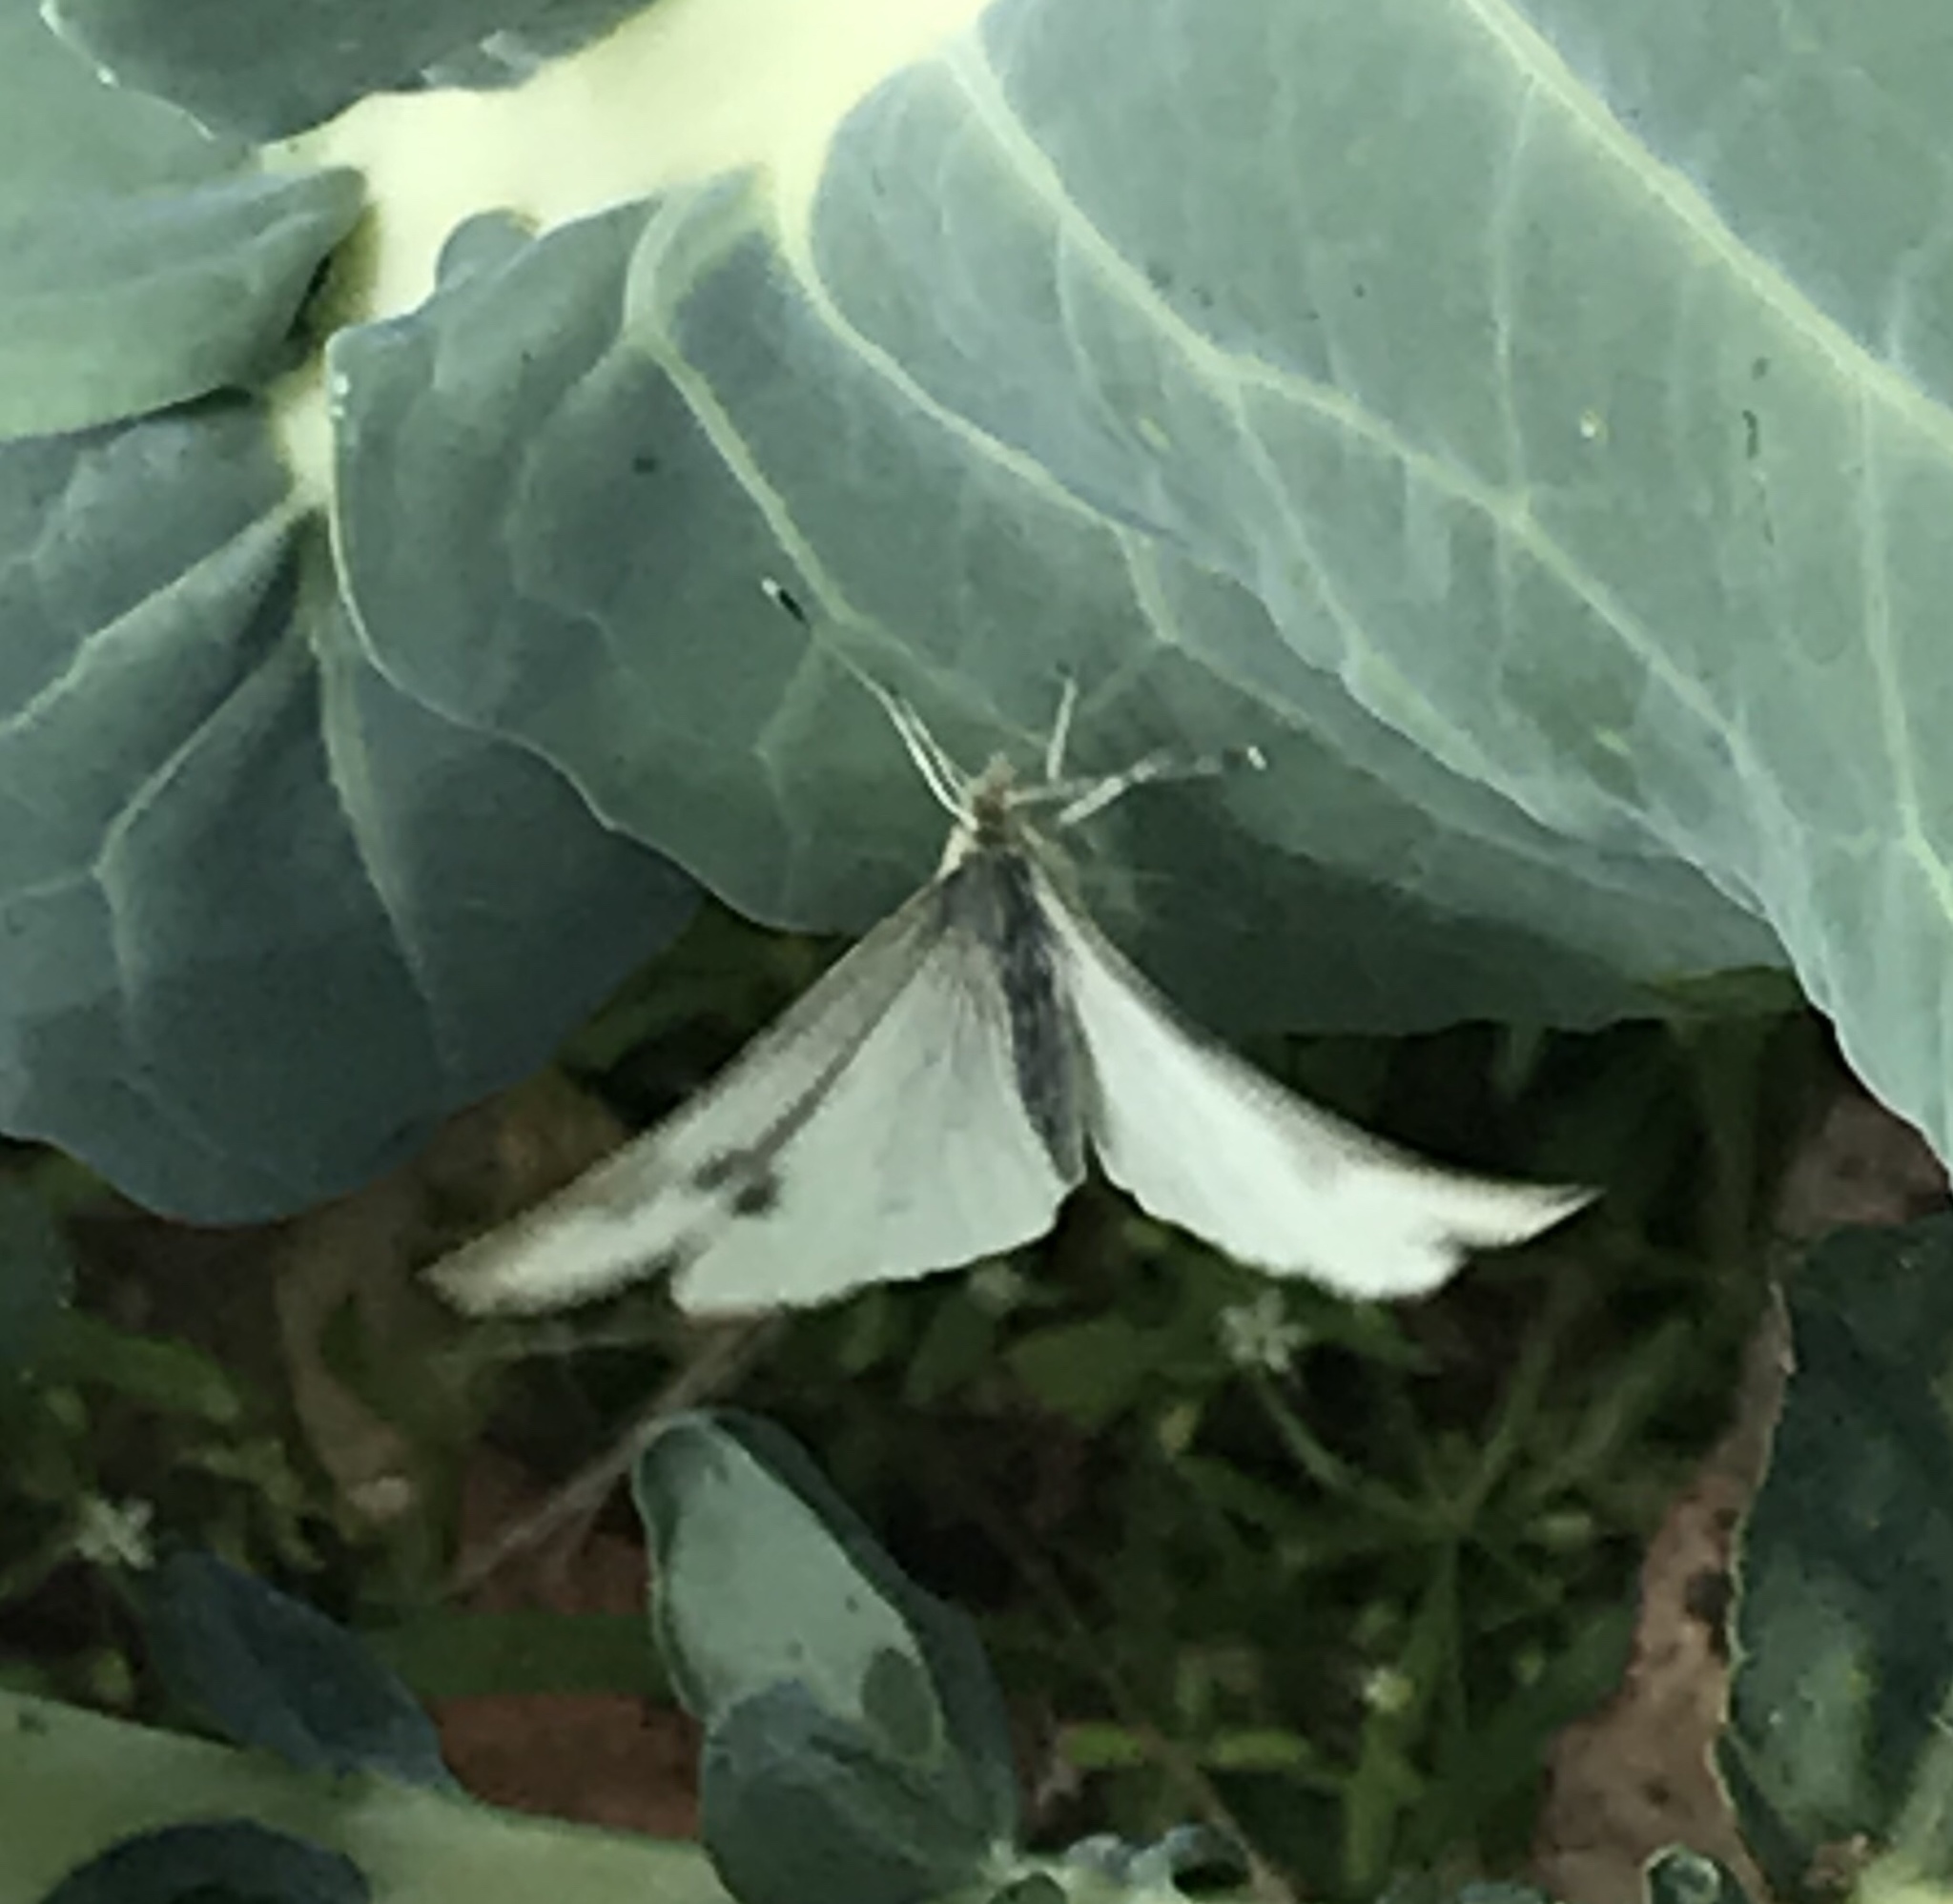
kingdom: Animalia
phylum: Arthropoda
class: Insecta
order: Lepidoptera
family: Pieridae
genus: Pieris
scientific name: Pieris rapae
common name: Small white
